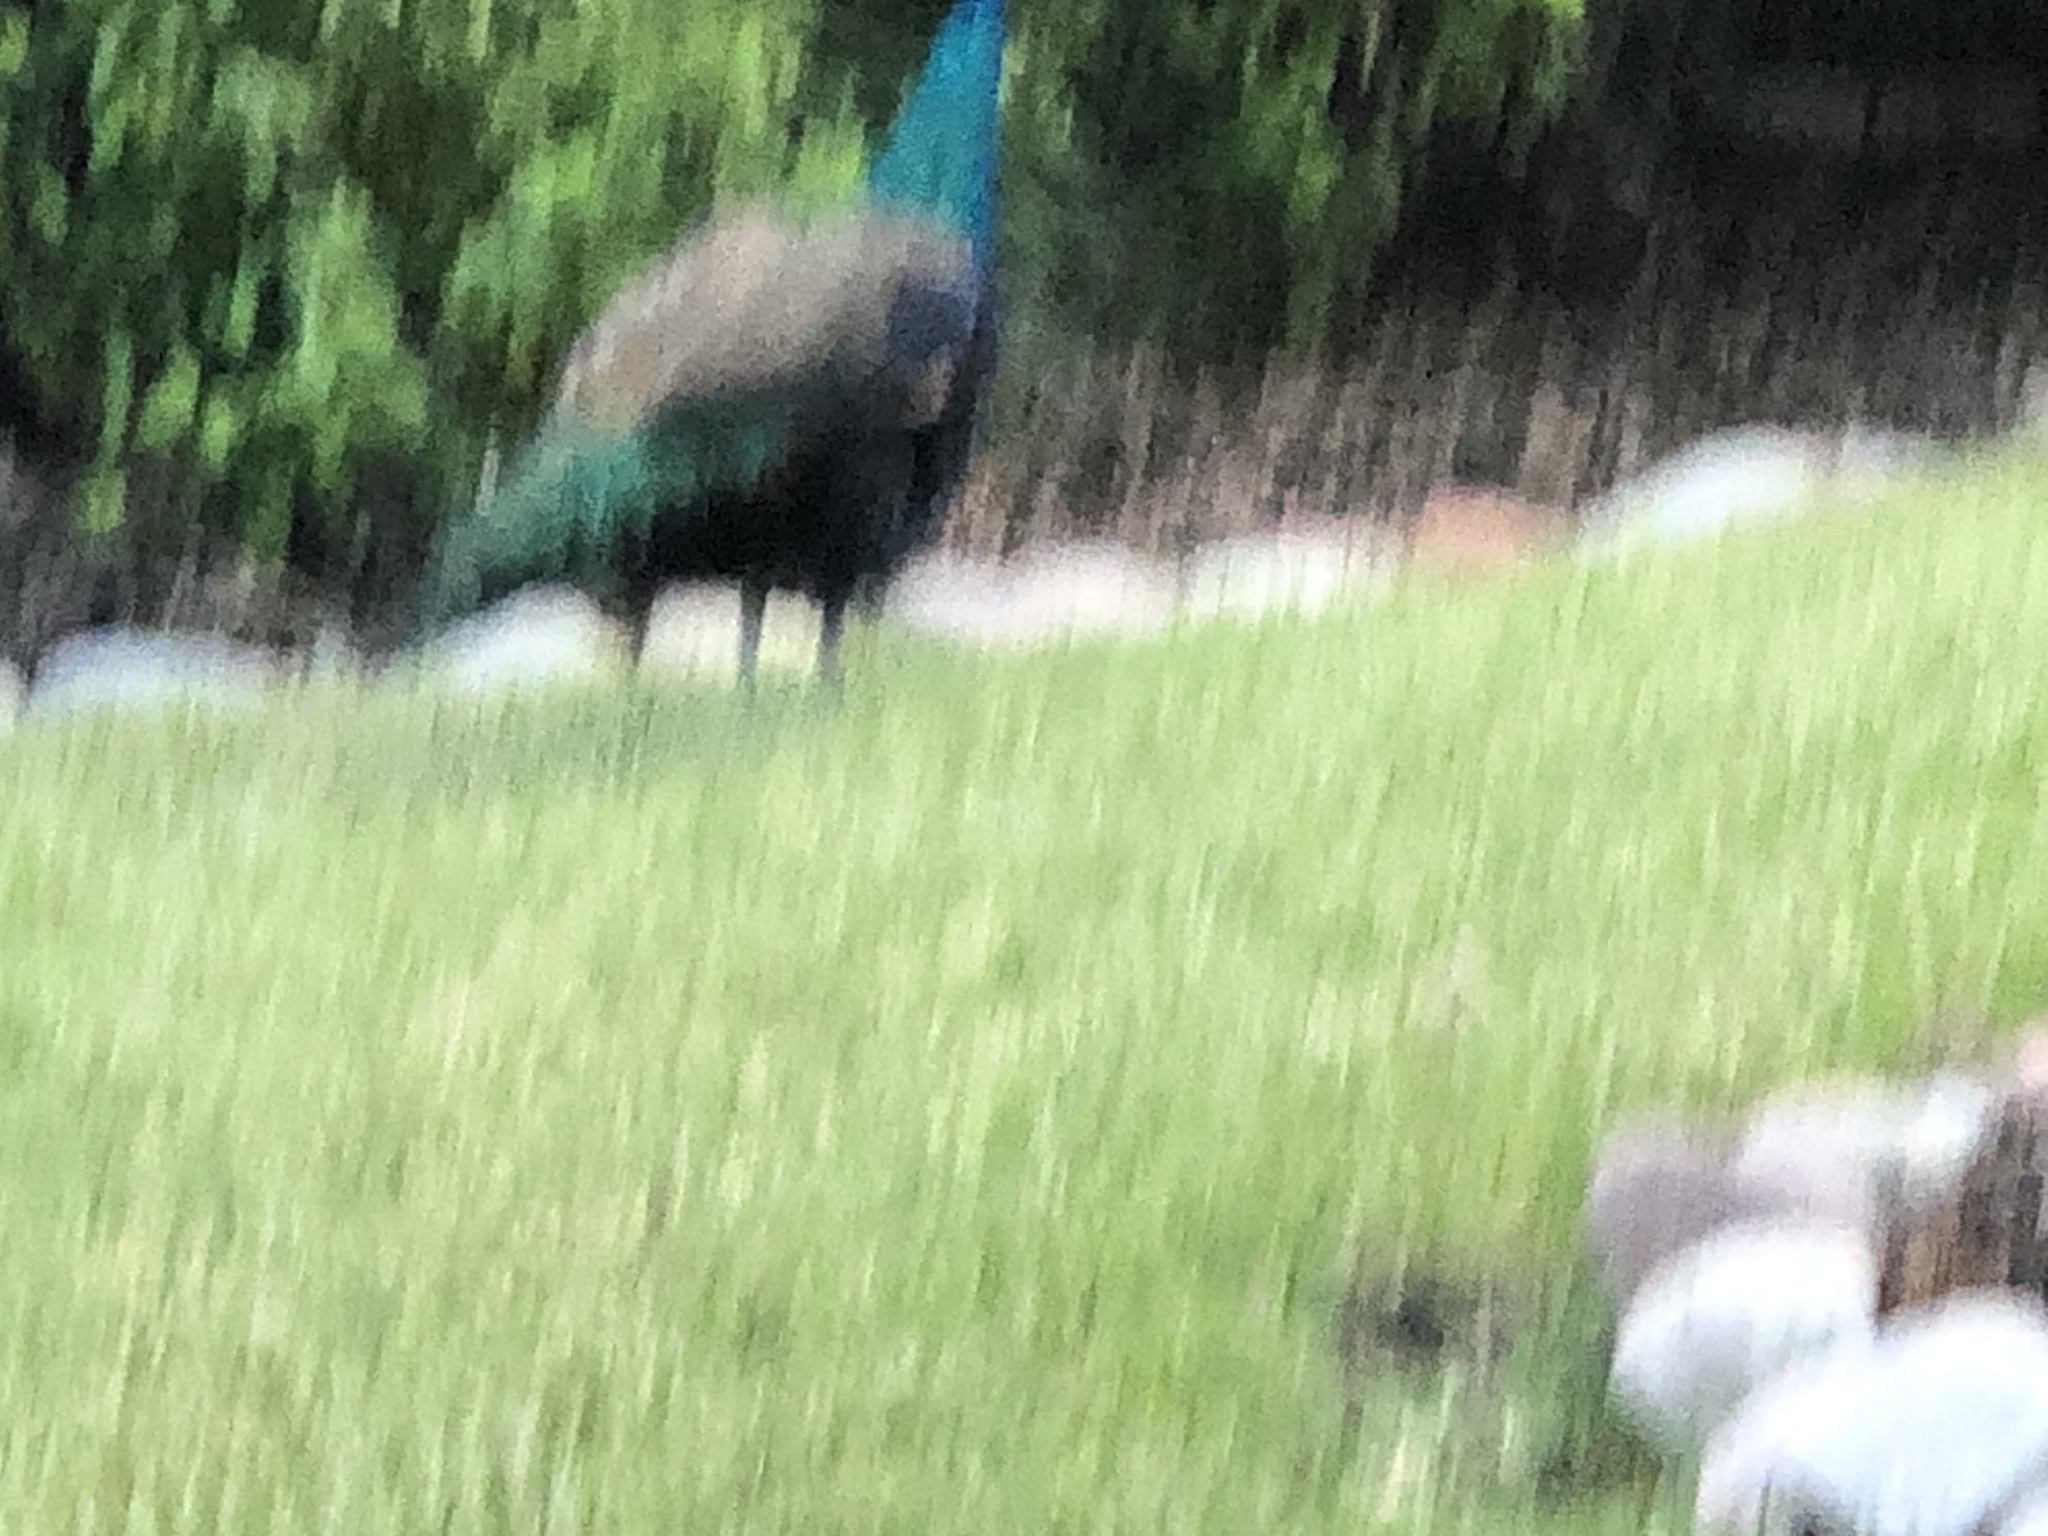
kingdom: Animalia
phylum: Chordata
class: Aves
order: Galliformes
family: Phasianidae
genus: Pavo
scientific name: Pavo cristatus
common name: Indian peafowl
